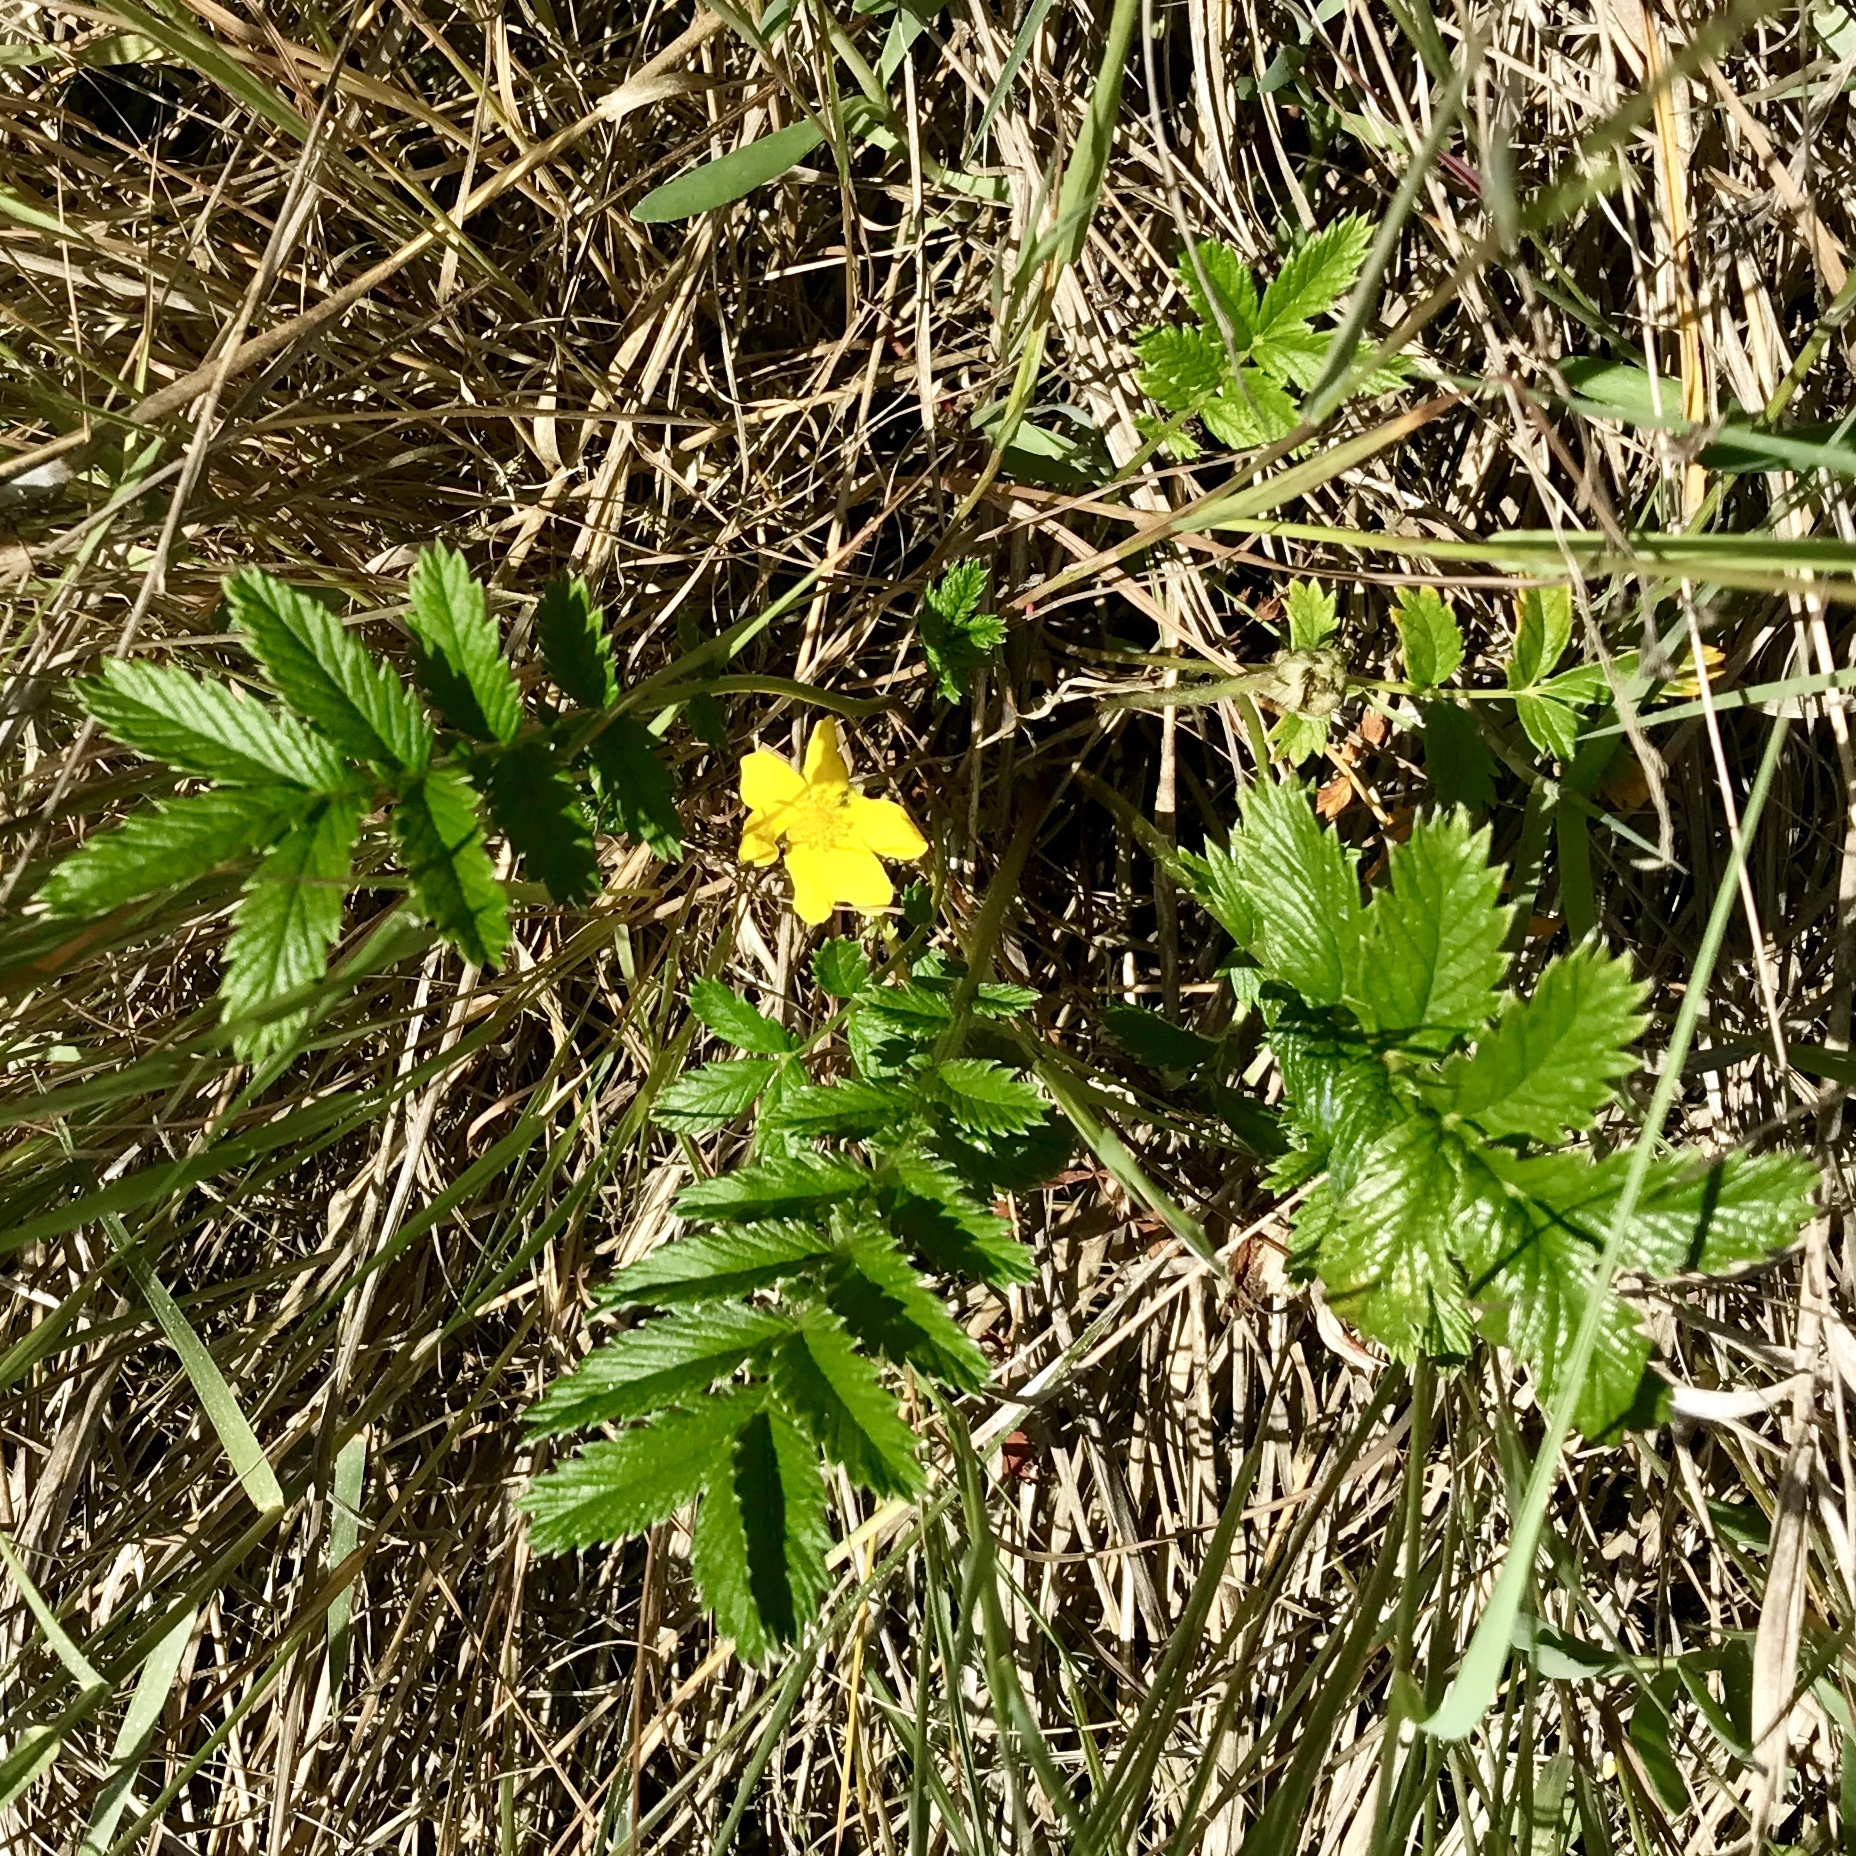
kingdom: Plantae
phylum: Tracheophyta
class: Magnoliopsida
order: Rosales
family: Rosaceae
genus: Argentina
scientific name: Argentina anserina
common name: Common silverweed
